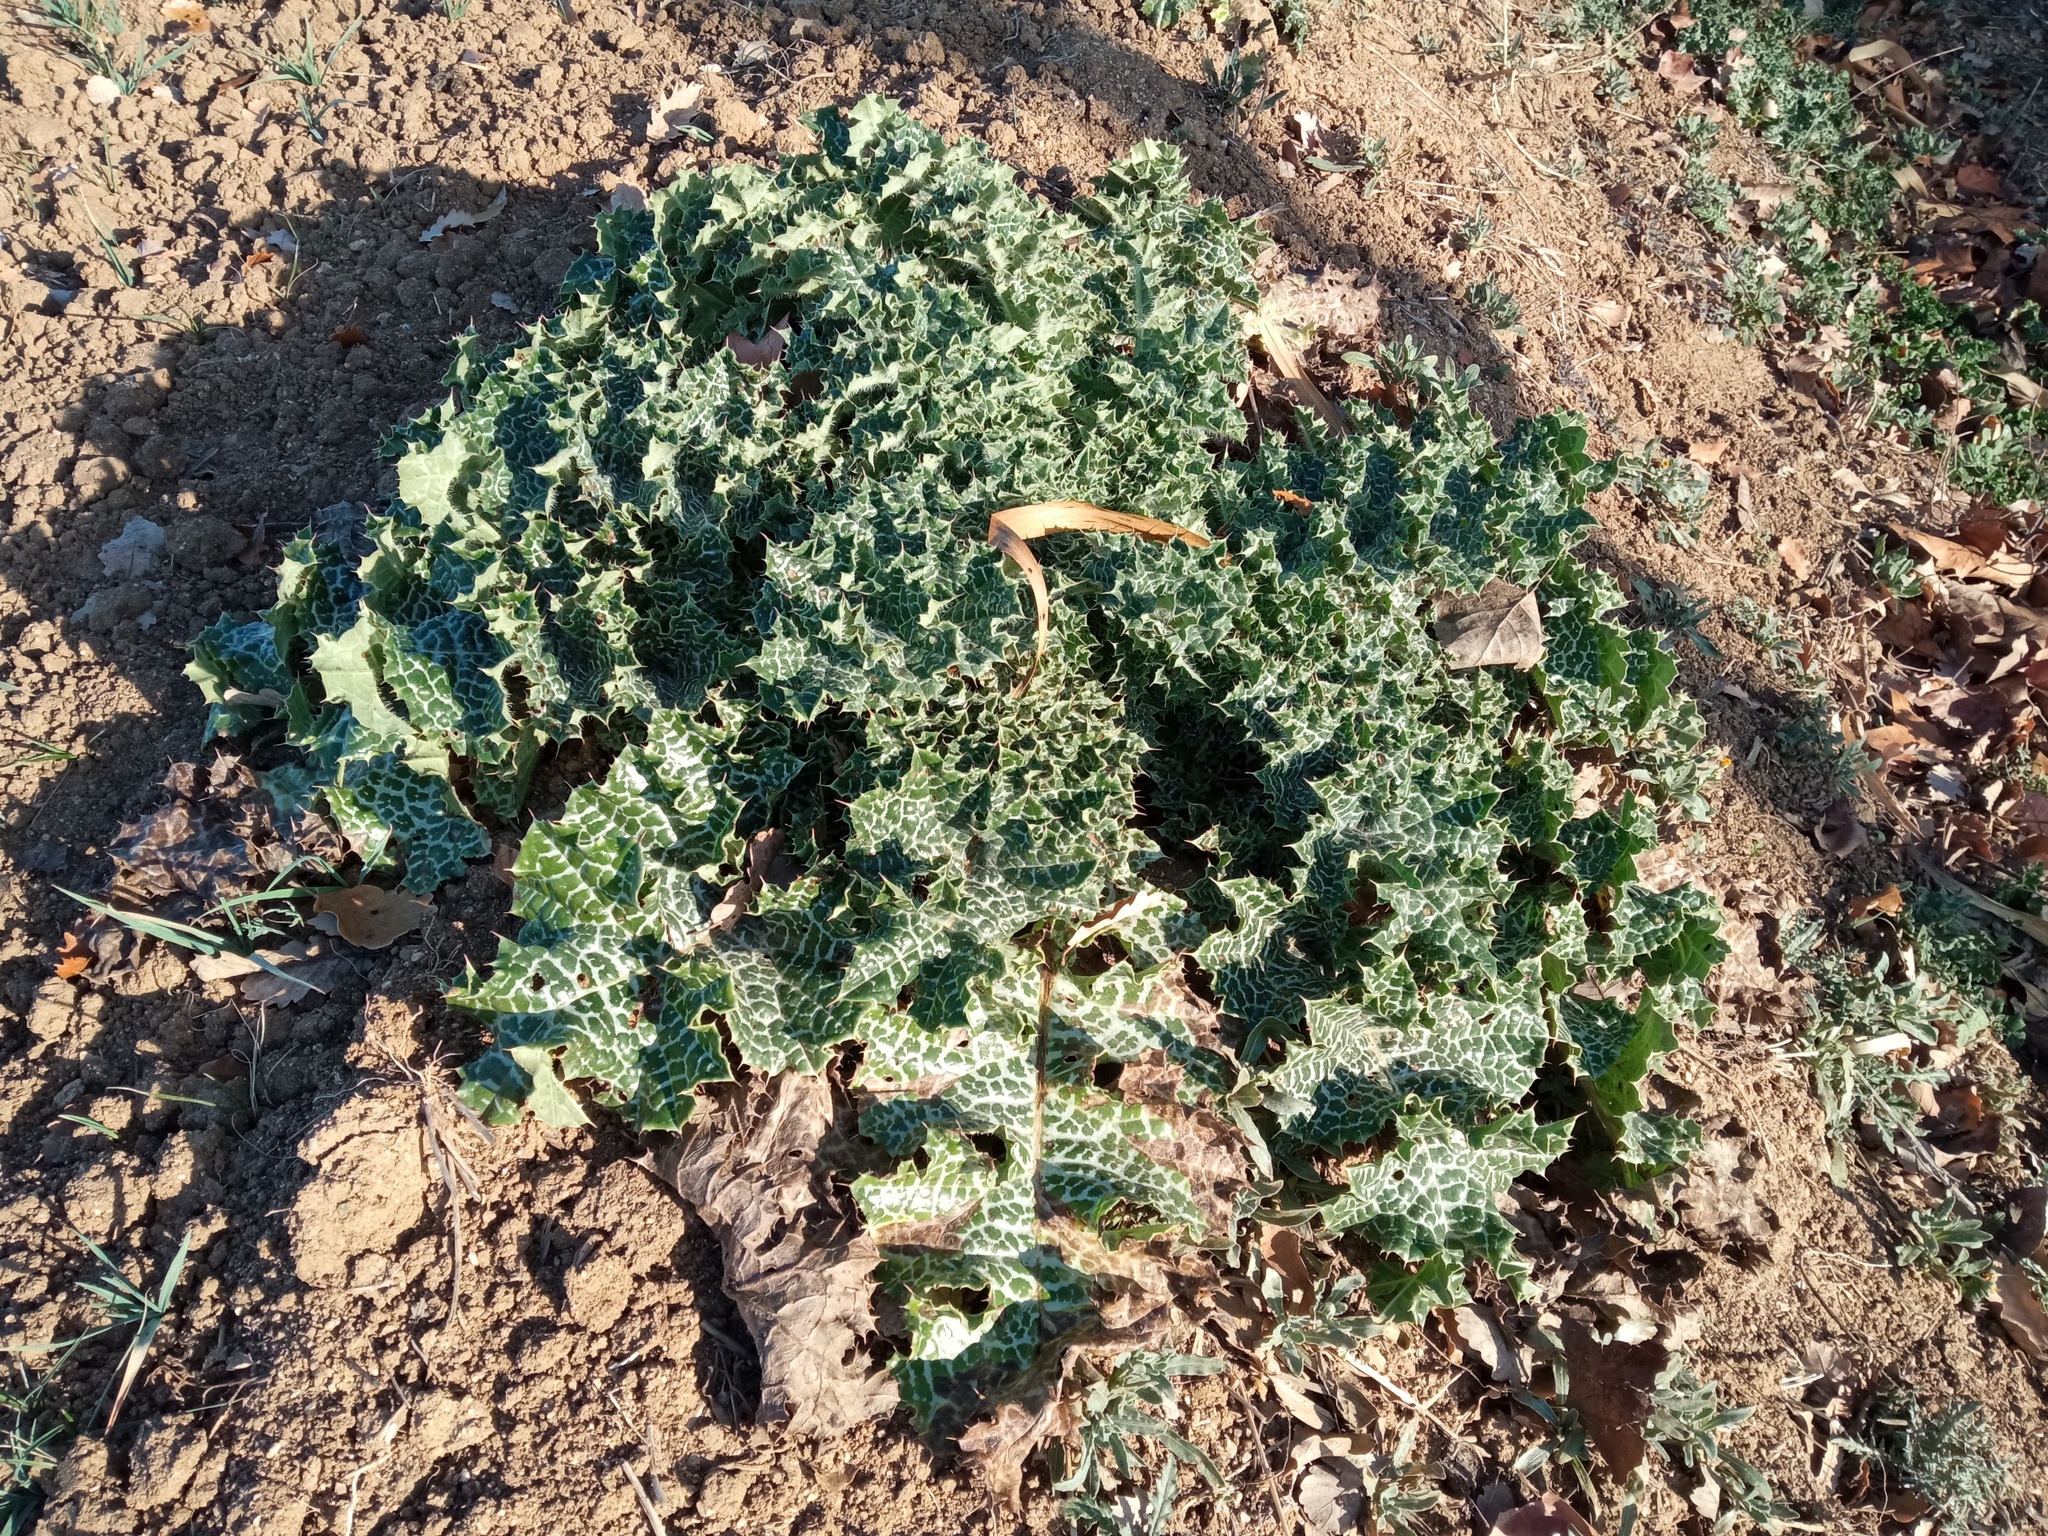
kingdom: Plantae
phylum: Tracheophyta
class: Magnoliopsida
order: Asterales
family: Asteraceae
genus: Silybum
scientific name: Silybum marianum
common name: Milk thistle
